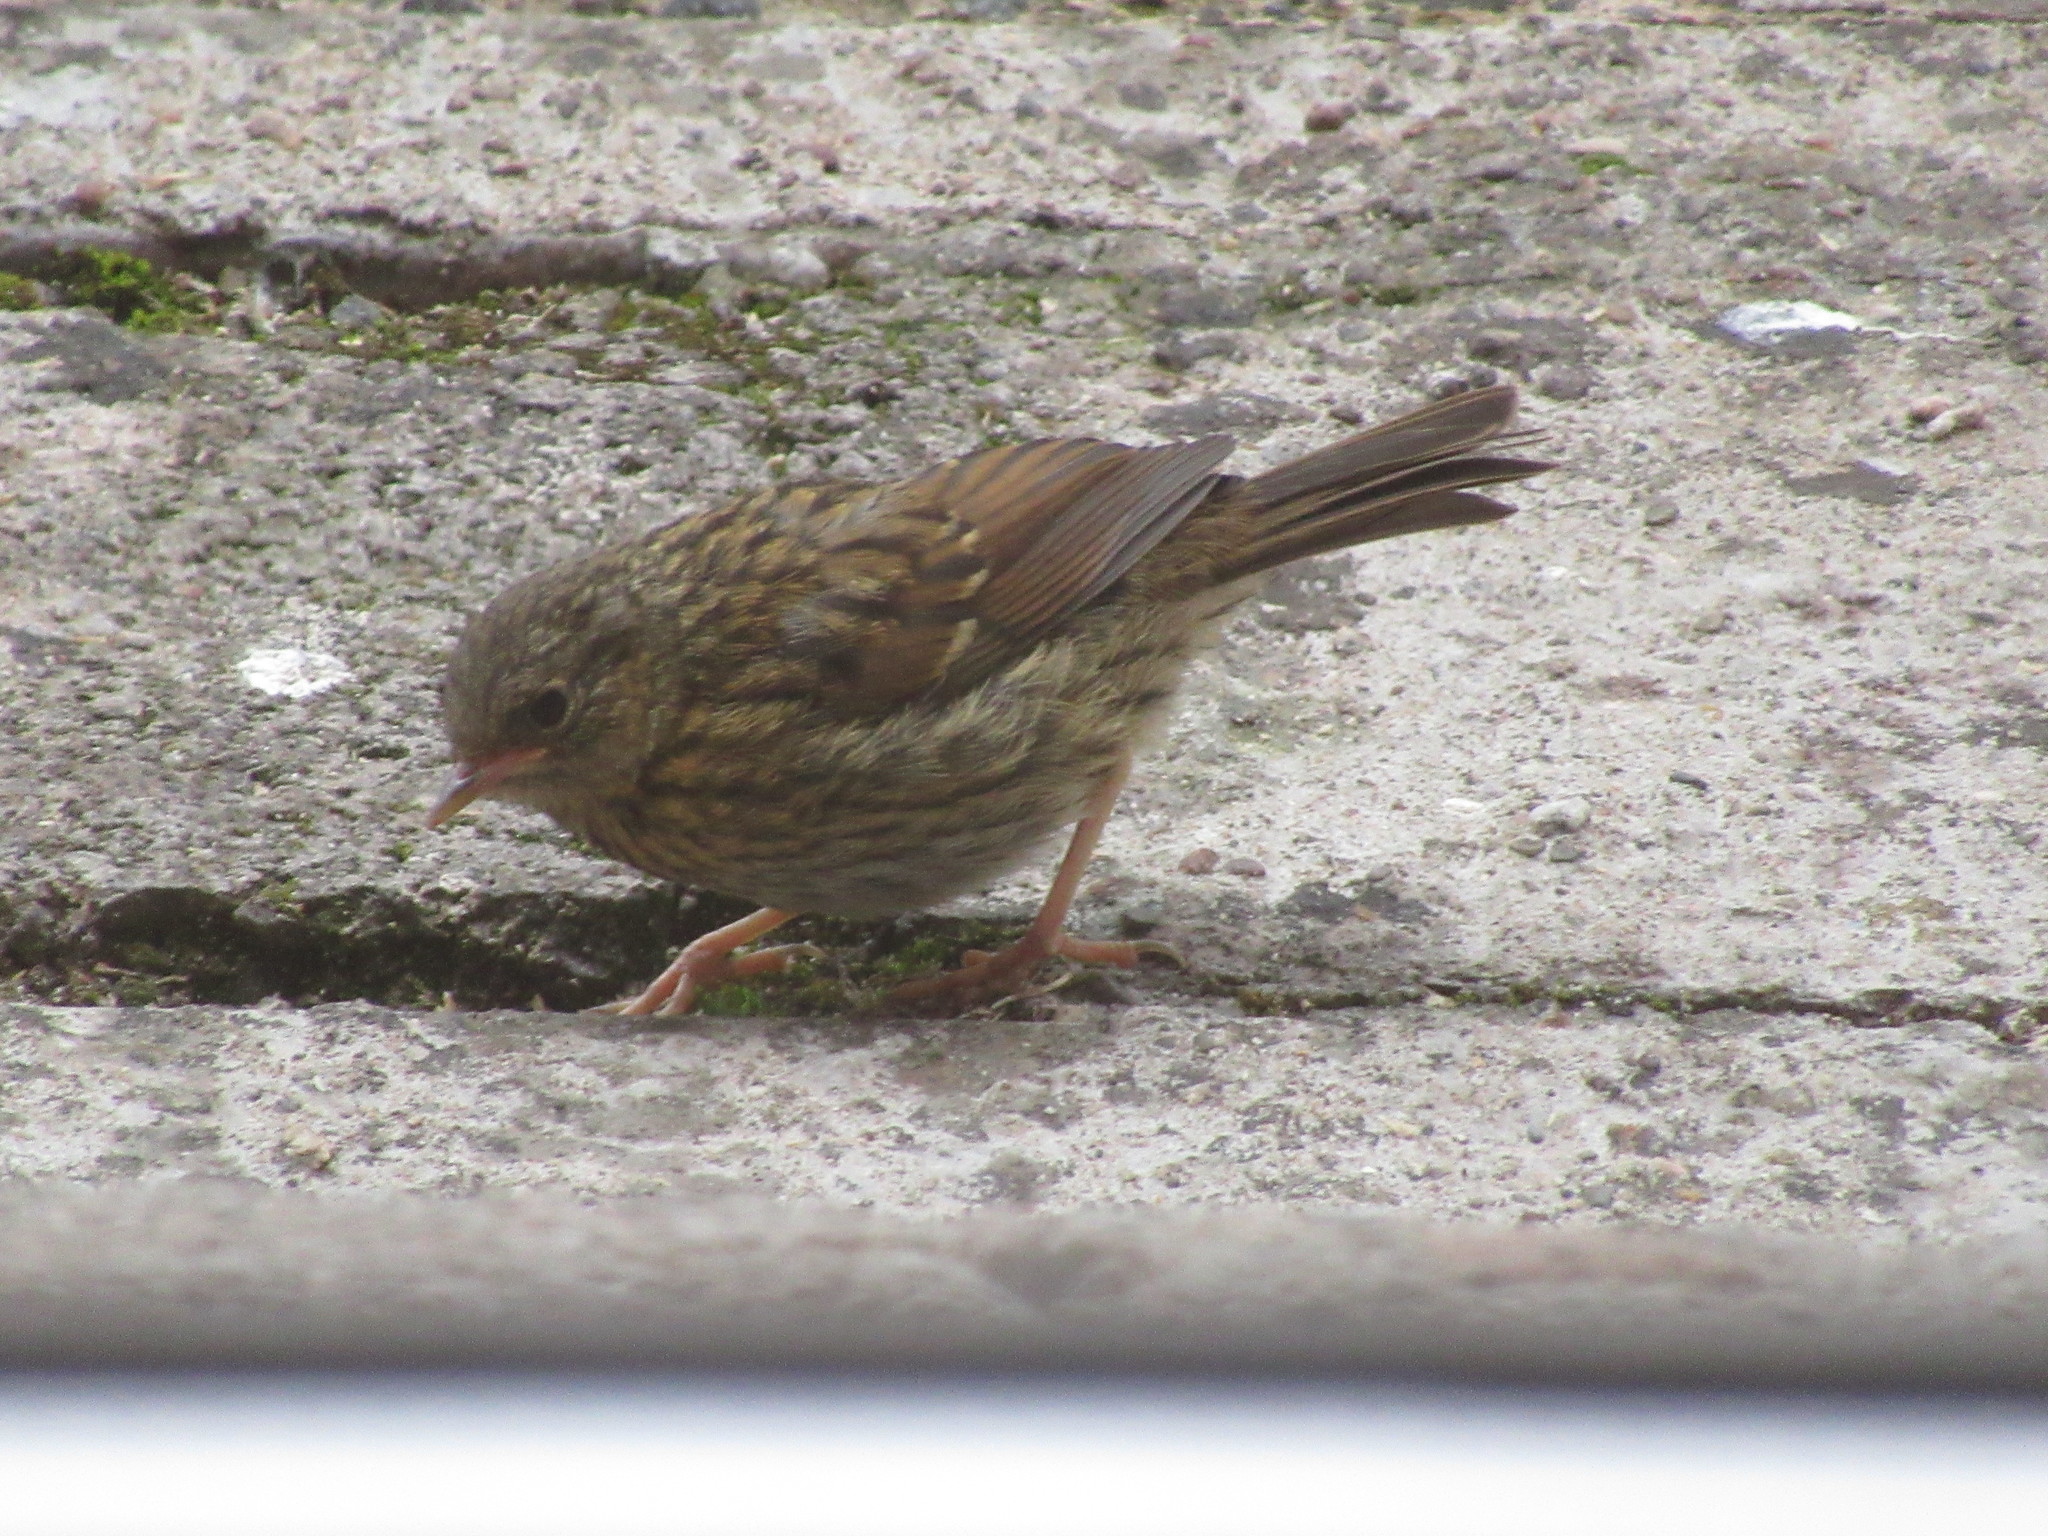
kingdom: Animalia
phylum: Chordata
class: Aves
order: Passeriformes
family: Prunellidae
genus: Prunella
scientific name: Prunella modularis
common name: Dunnock
